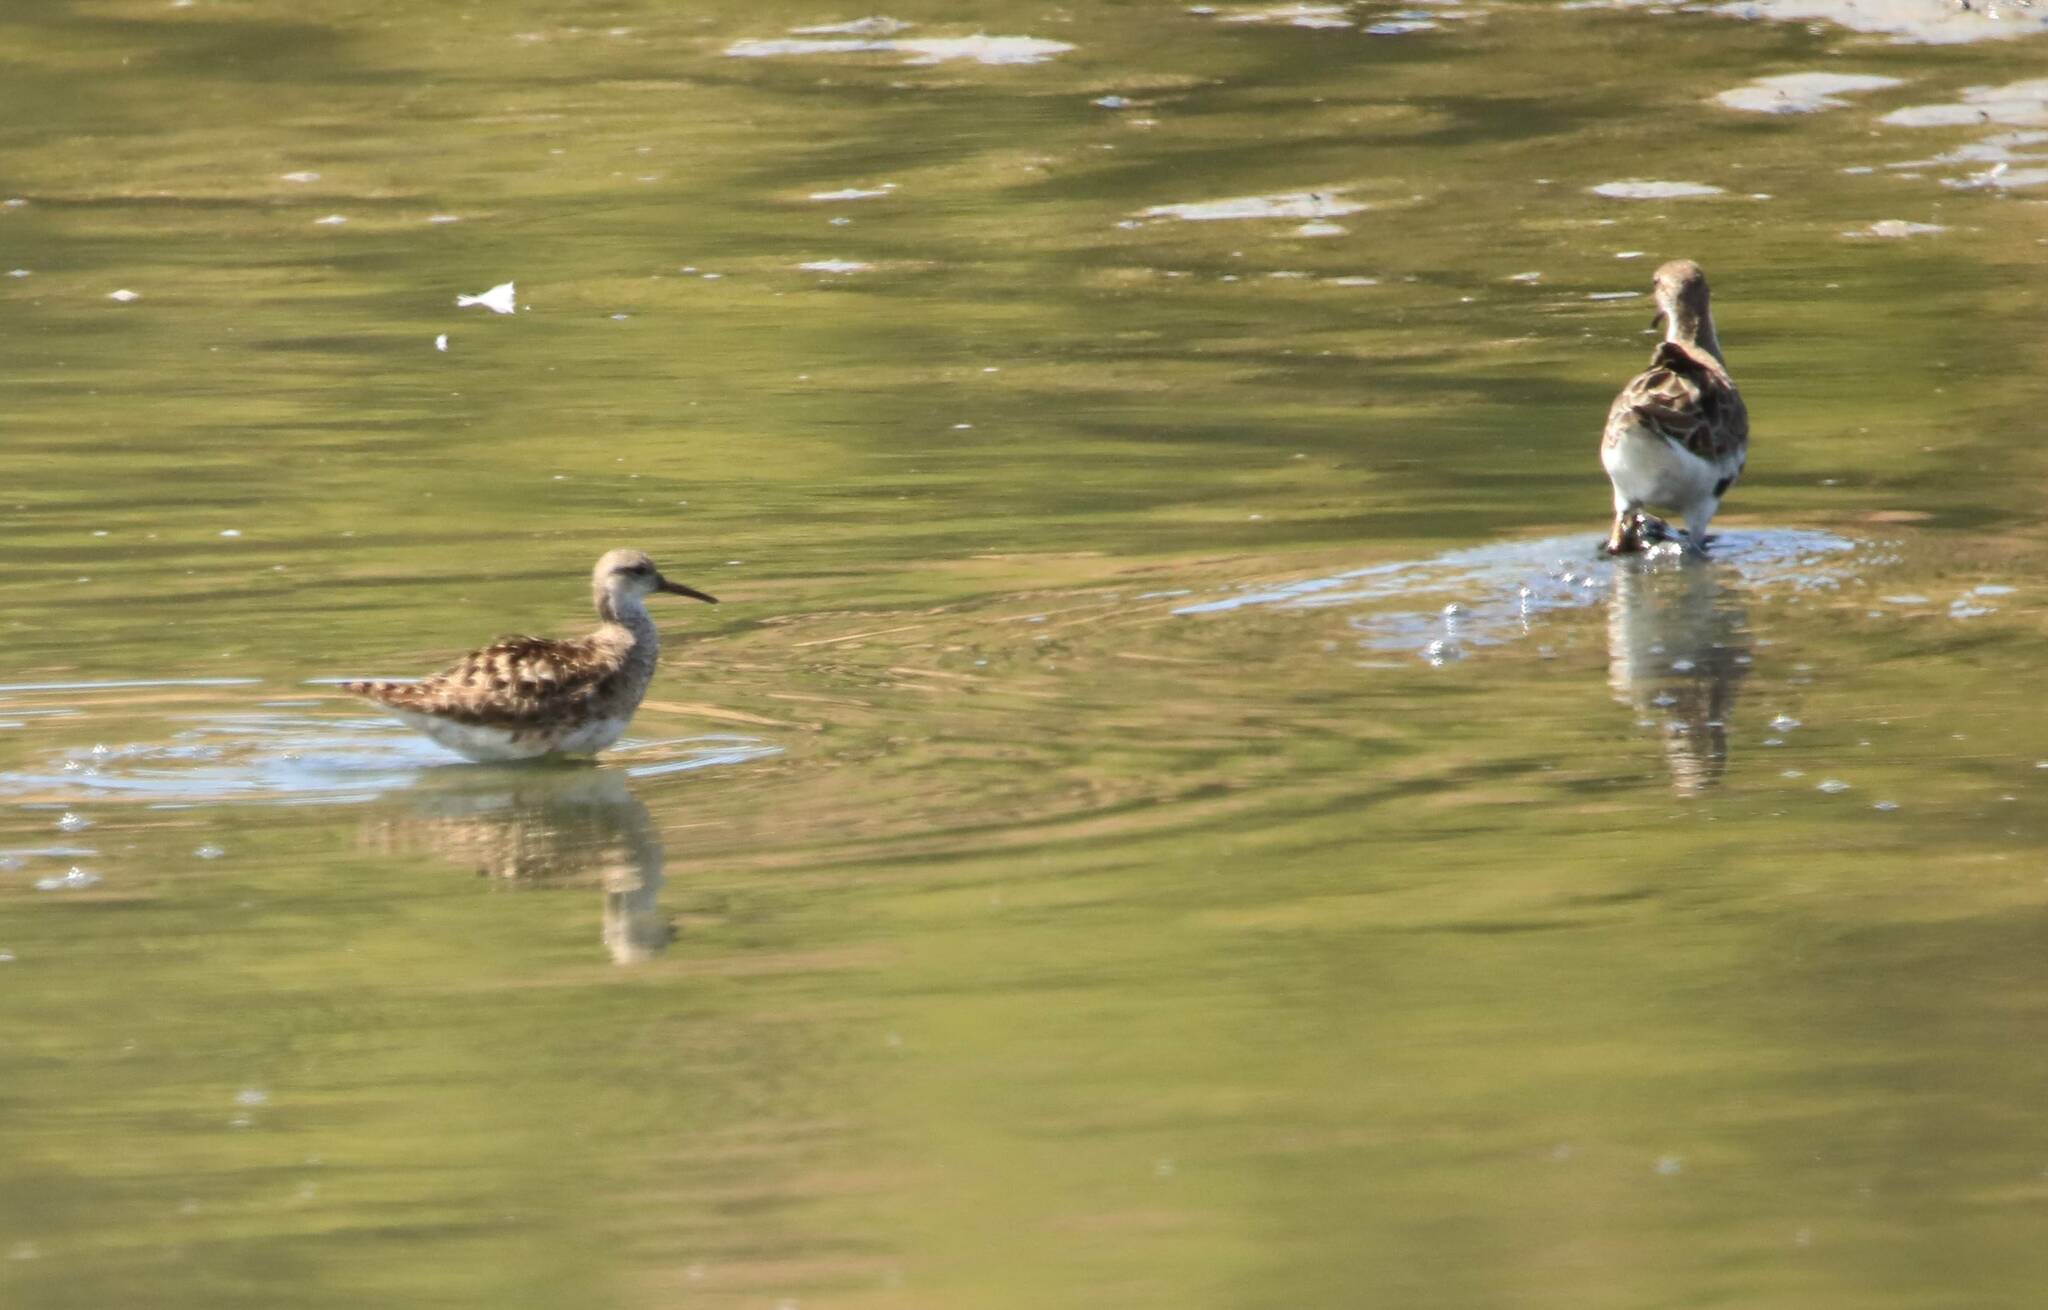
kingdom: Animalia
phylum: Chordata
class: Aves
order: Charadriiformes
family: Scolopacidae
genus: Calidris
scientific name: Calidris pugnax
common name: Ruff
